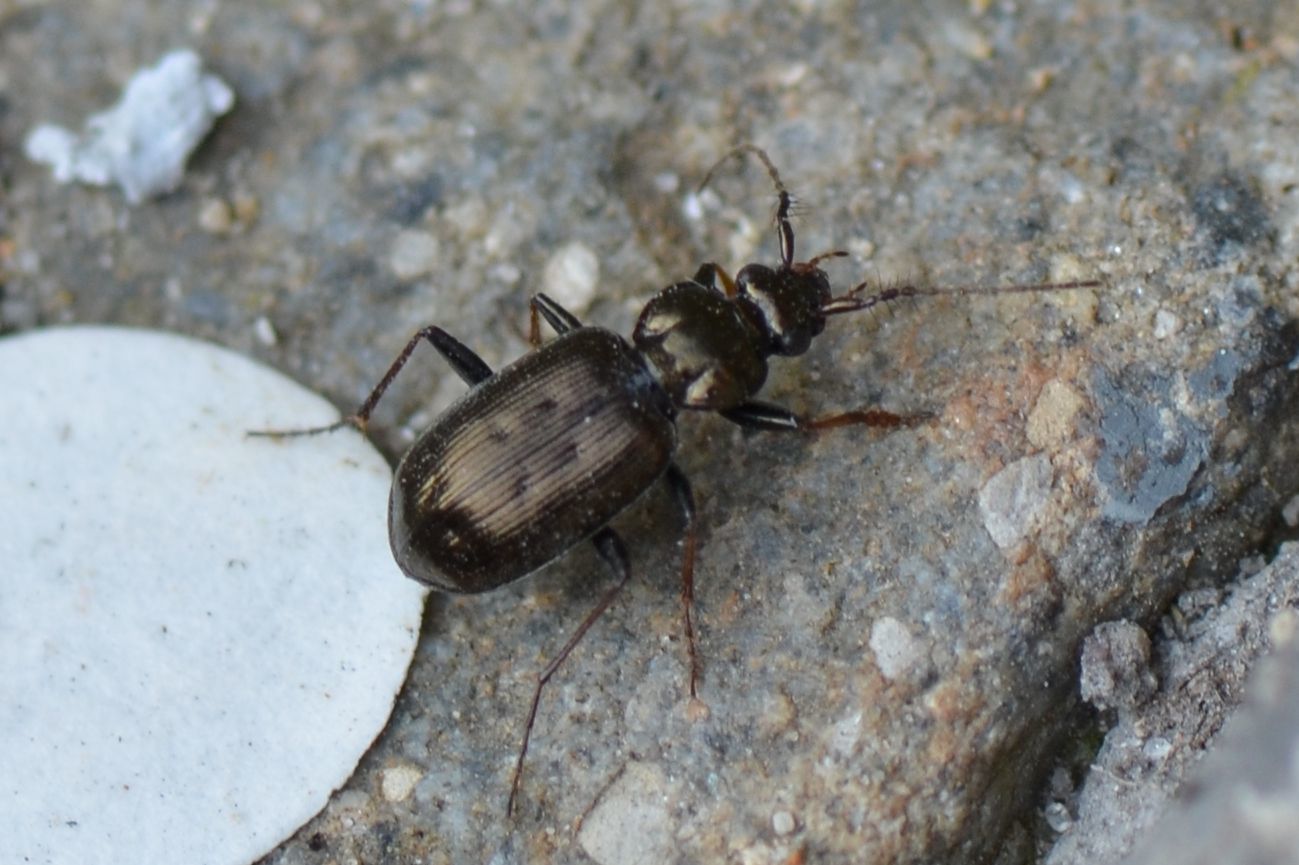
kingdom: Animalia
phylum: Arthropoda
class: Insecta
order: Coleoptera
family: Carabidae
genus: Loricera
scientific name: Loricera pilicornis
